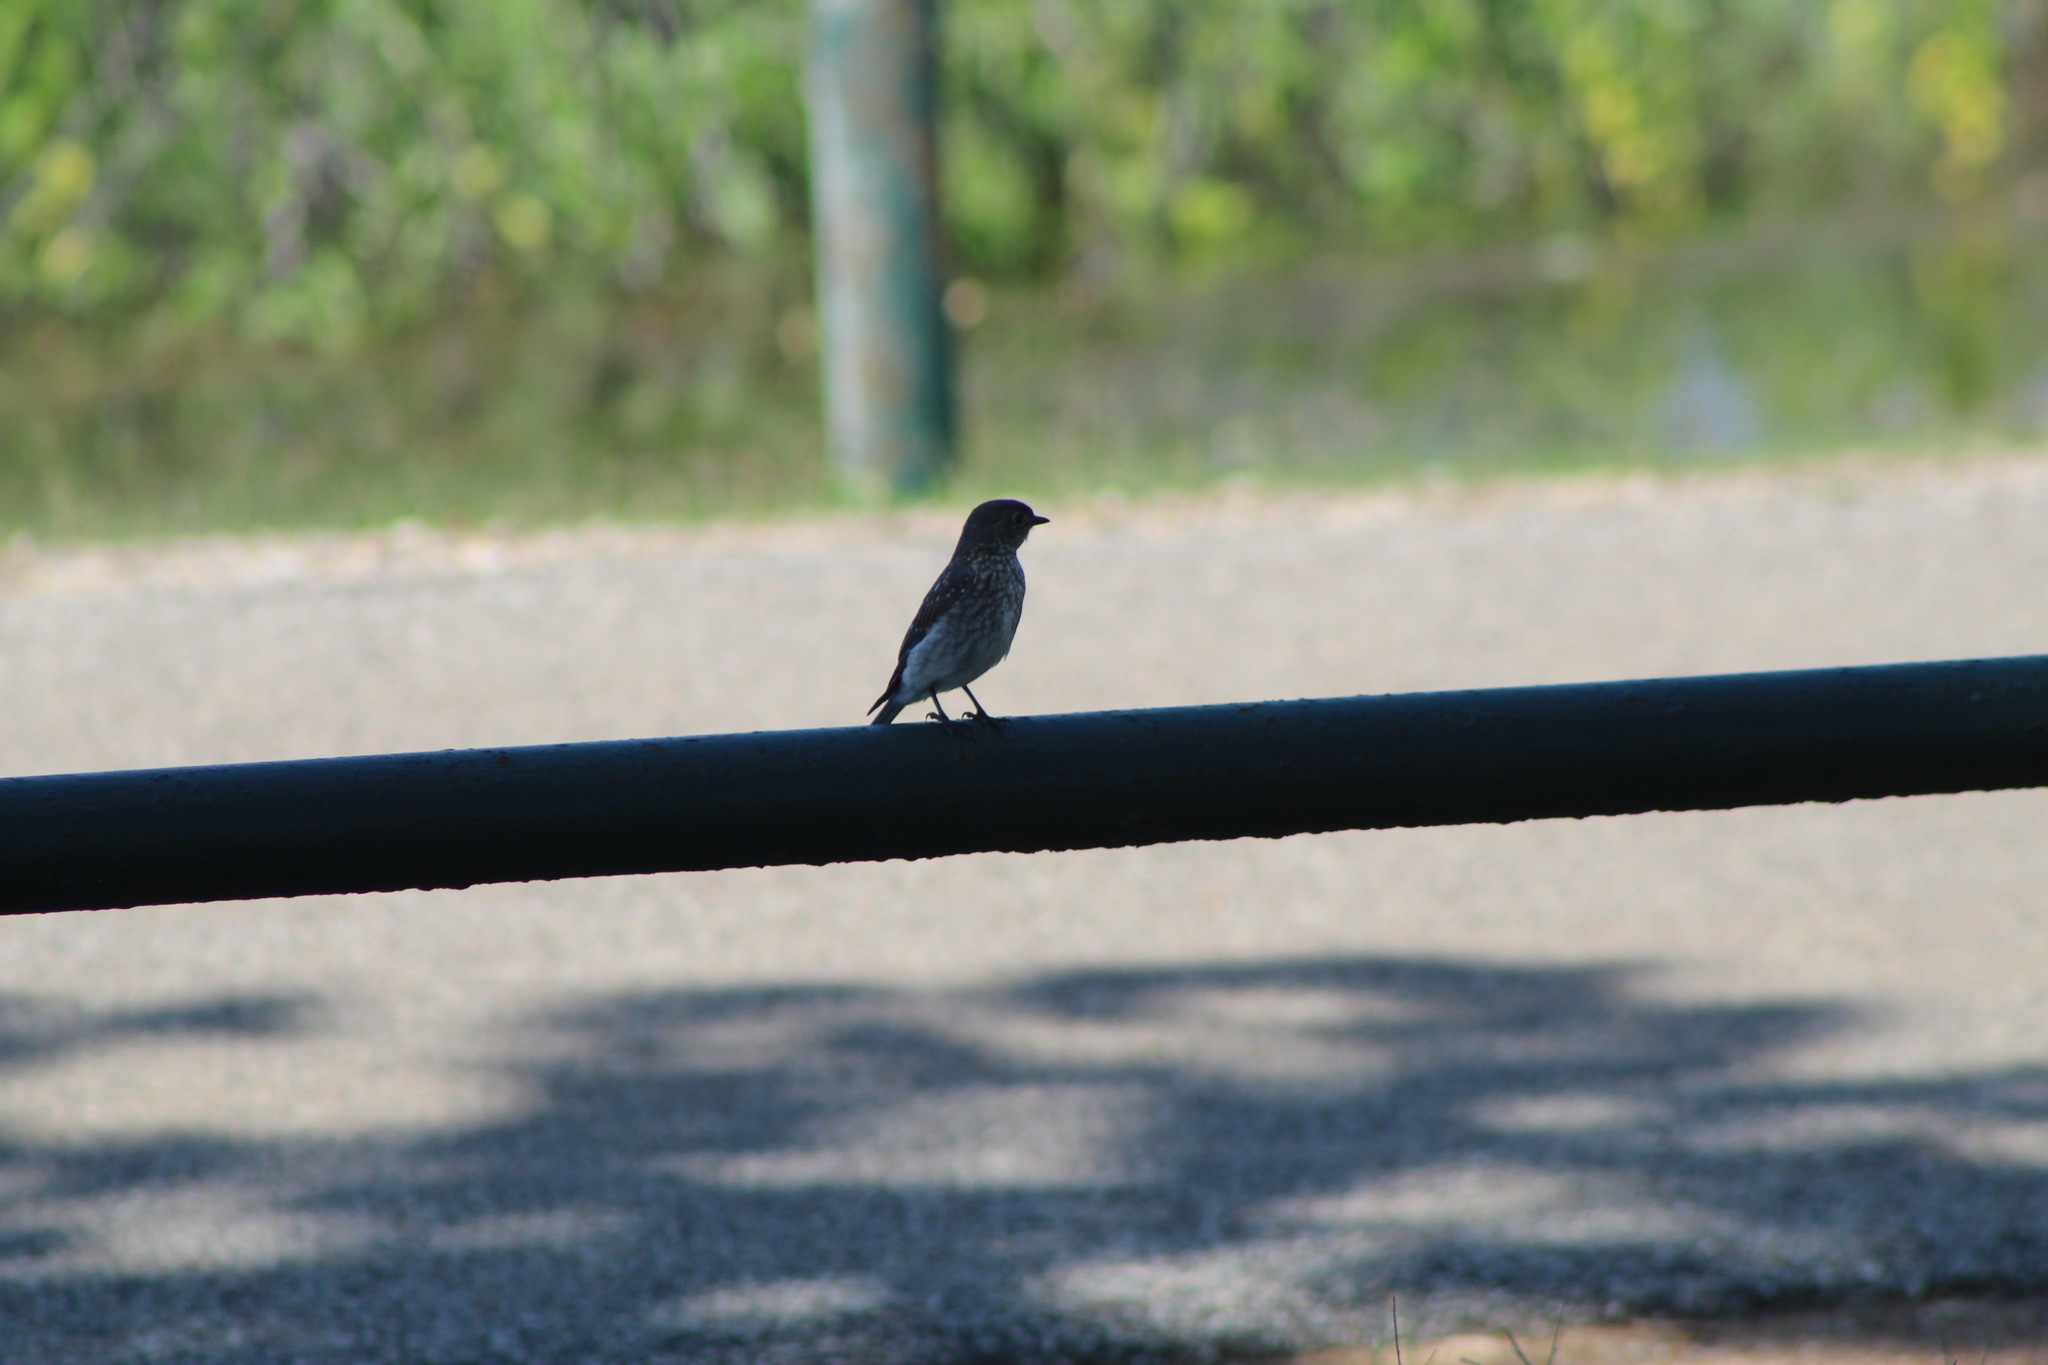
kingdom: Animalia
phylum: Chordata
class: Aves
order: Passeriformes
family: Turdidae
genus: Sialia
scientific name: Sialia sialis
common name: Eastern bluebird
